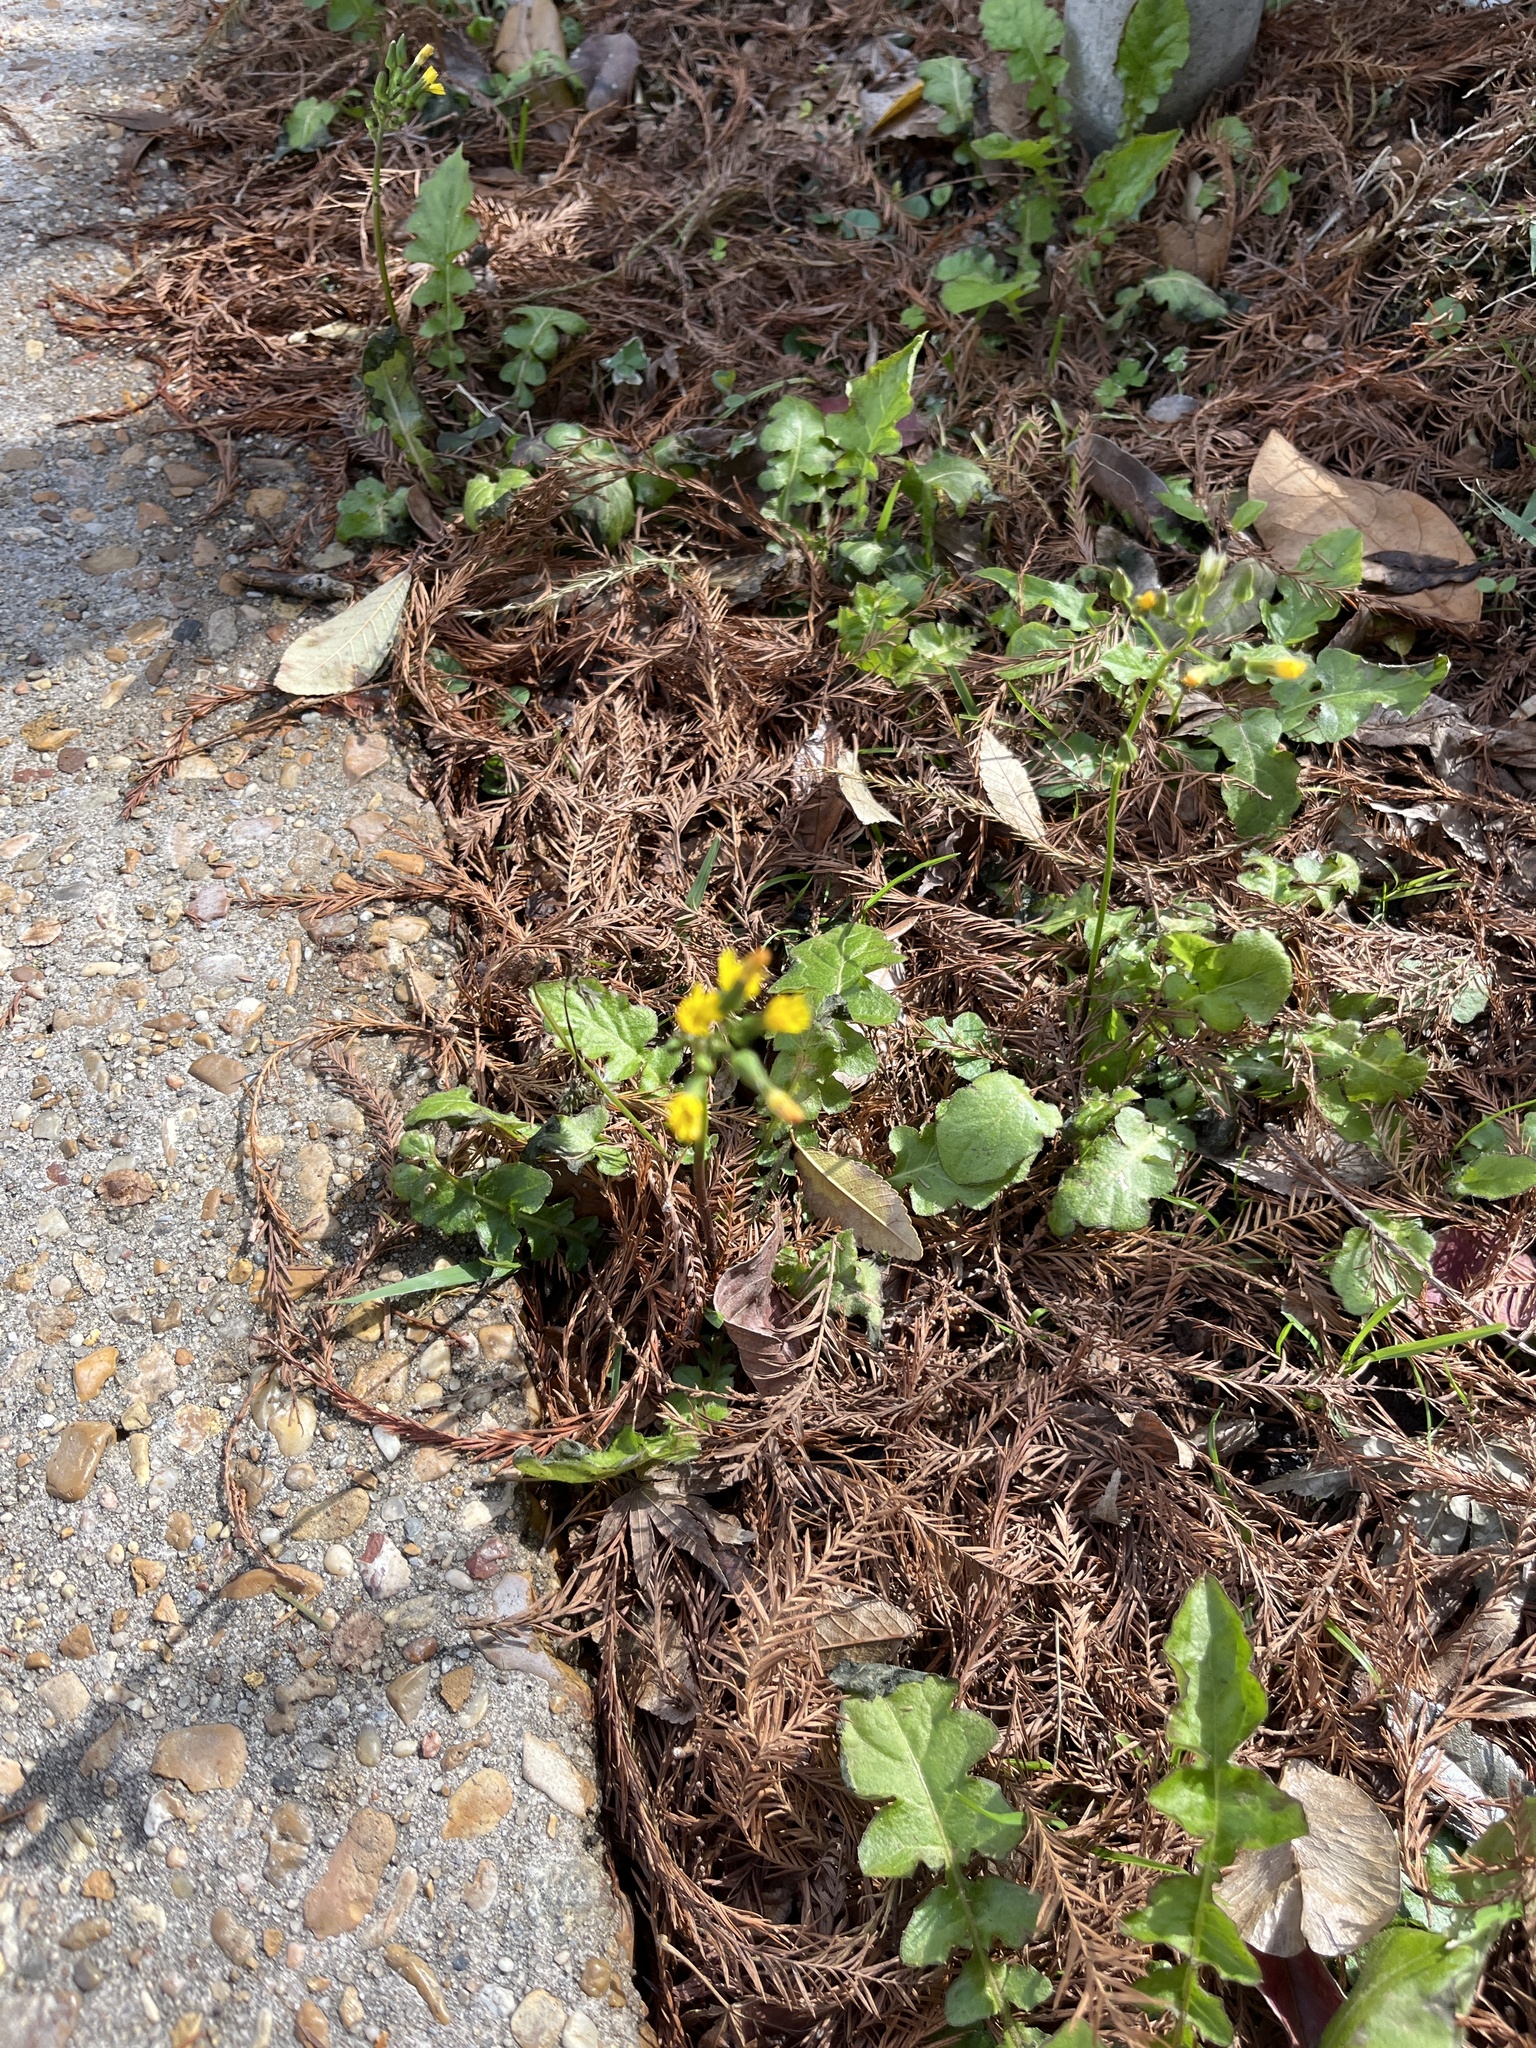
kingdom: Plantae
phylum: Tracheophyta
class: Magnoliopsida
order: Asterales
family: Asteraceae
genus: Youngia
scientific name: Youngia japonica
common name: Oriental false hawksbeard
